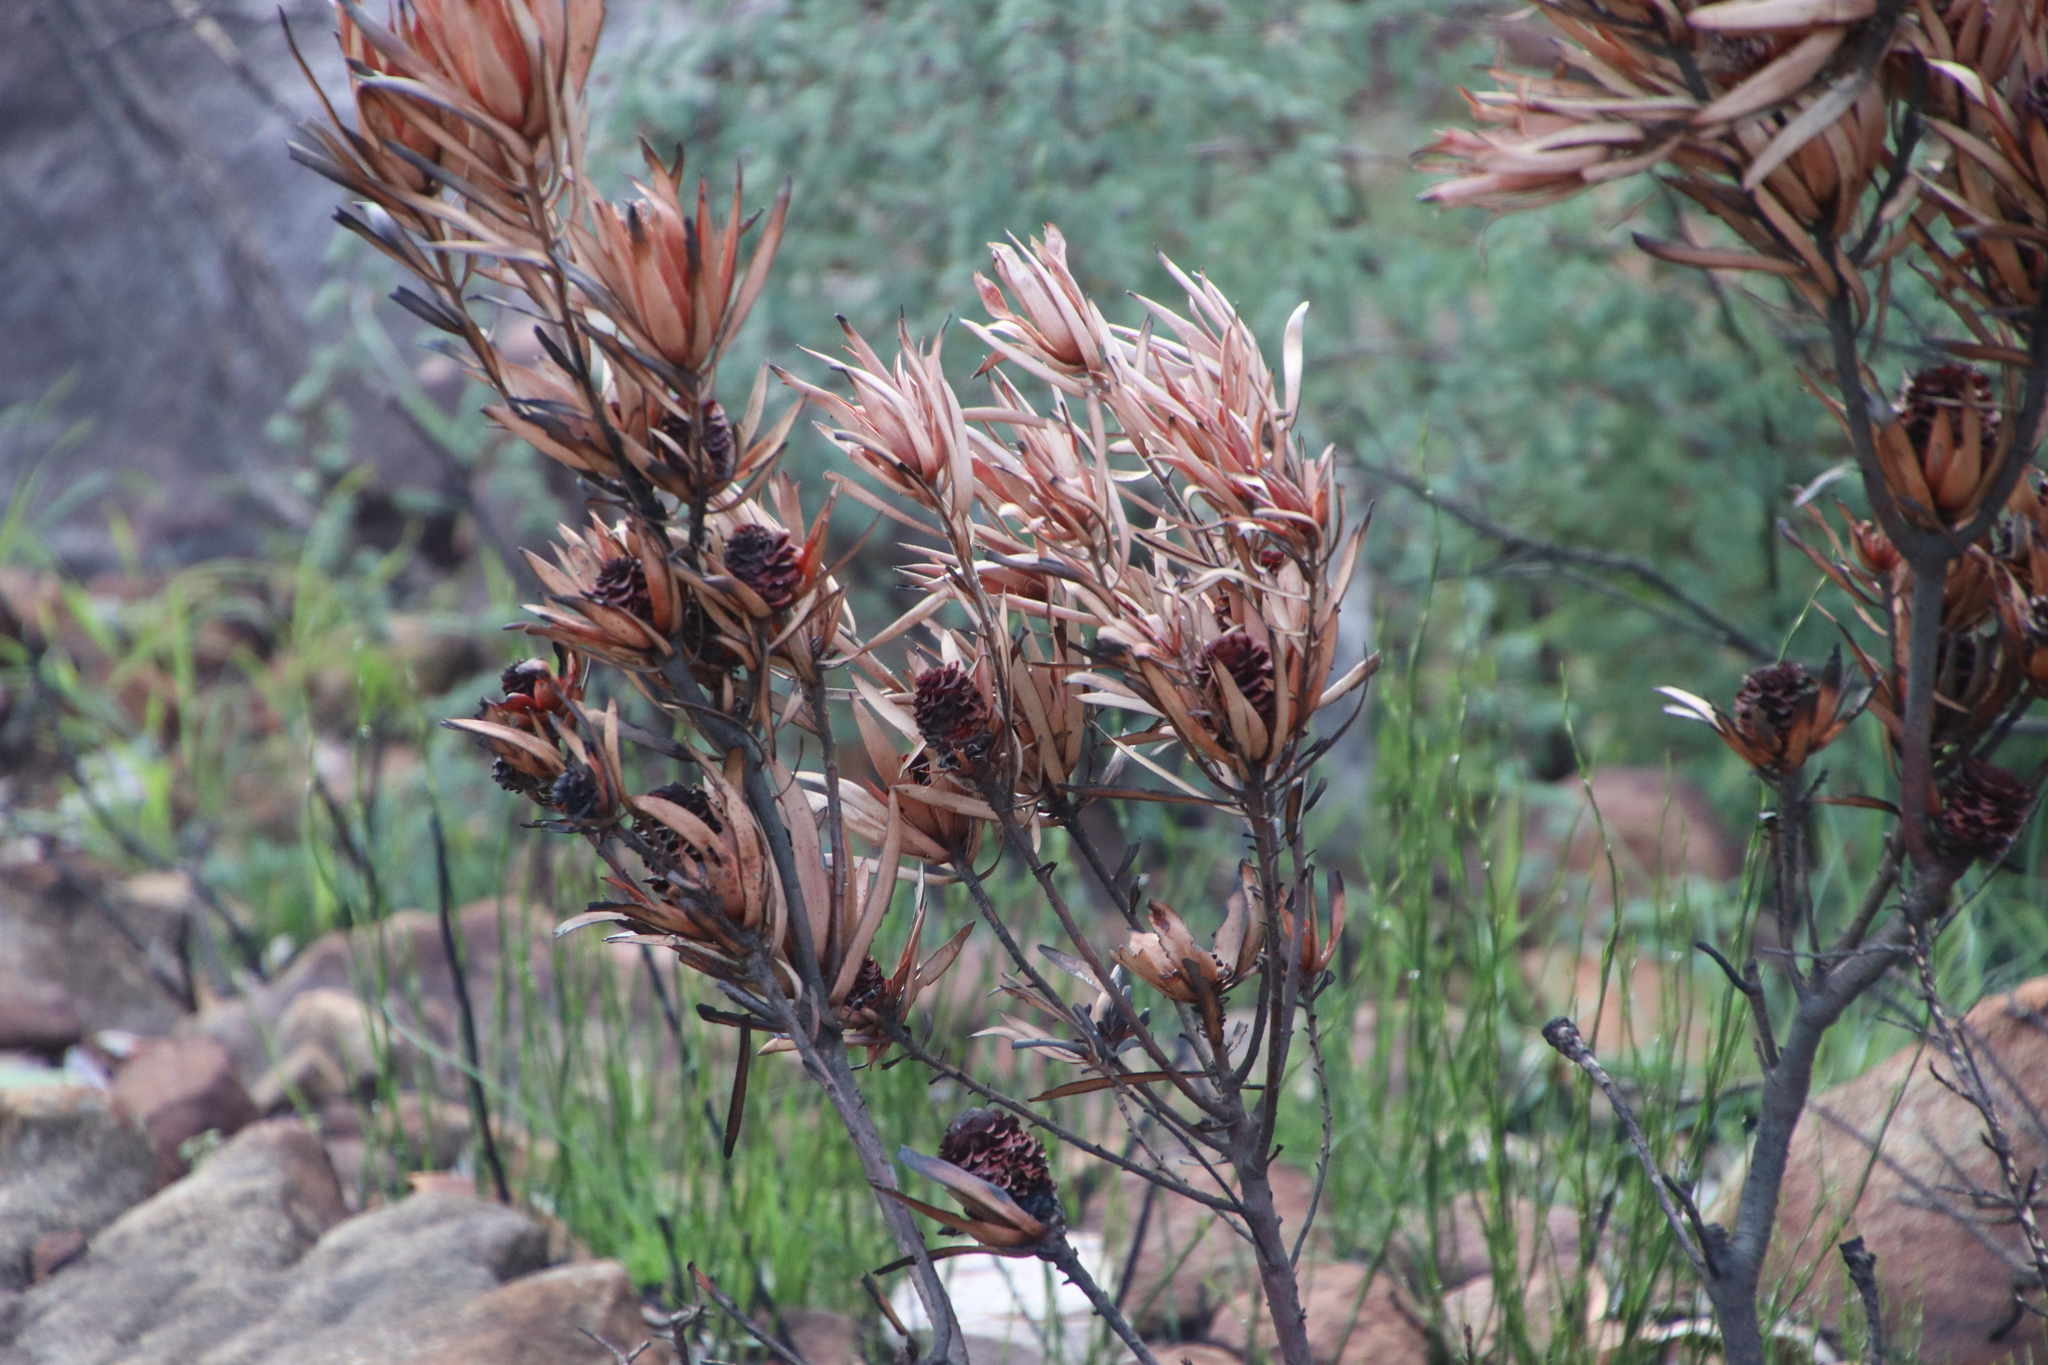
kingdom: Plantae
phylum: Tracheophyta
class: Magnoliopsida
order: Proteales
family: Proteaceae
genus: Leucadendron
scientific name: Leucadendron spissifolium
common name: Spear-leaf conebush
